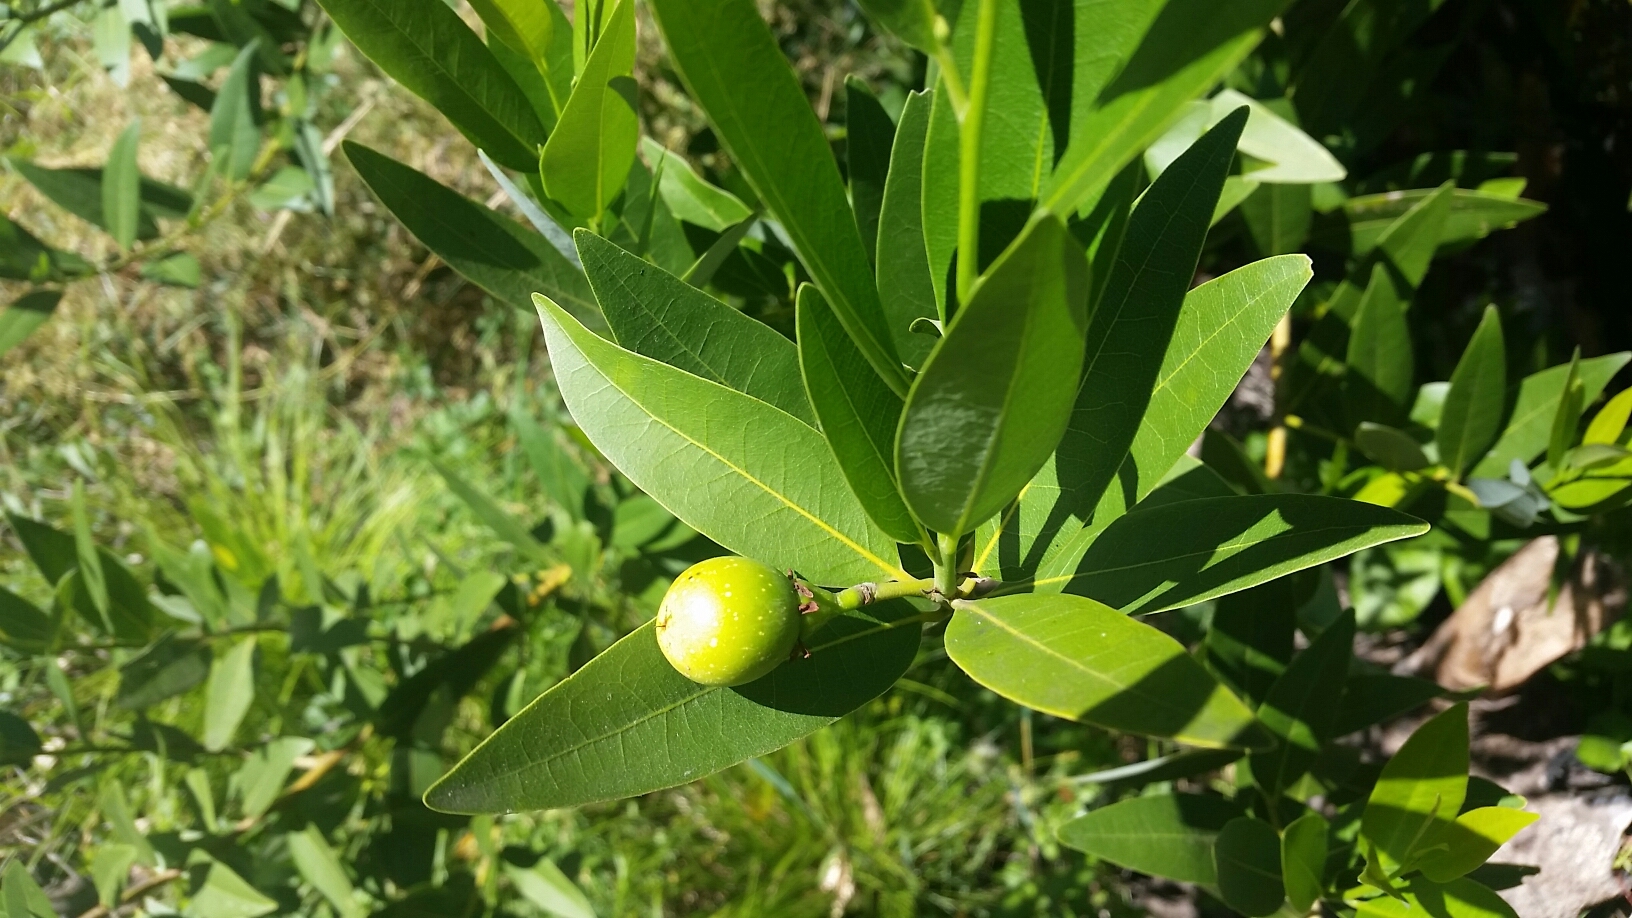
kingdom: Plantae
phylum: Tracheophyta
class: Magnoliopsida
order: Laurales
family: Lauraceae
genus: Umbellularia
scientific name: Umbellularia californica
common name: California bay
